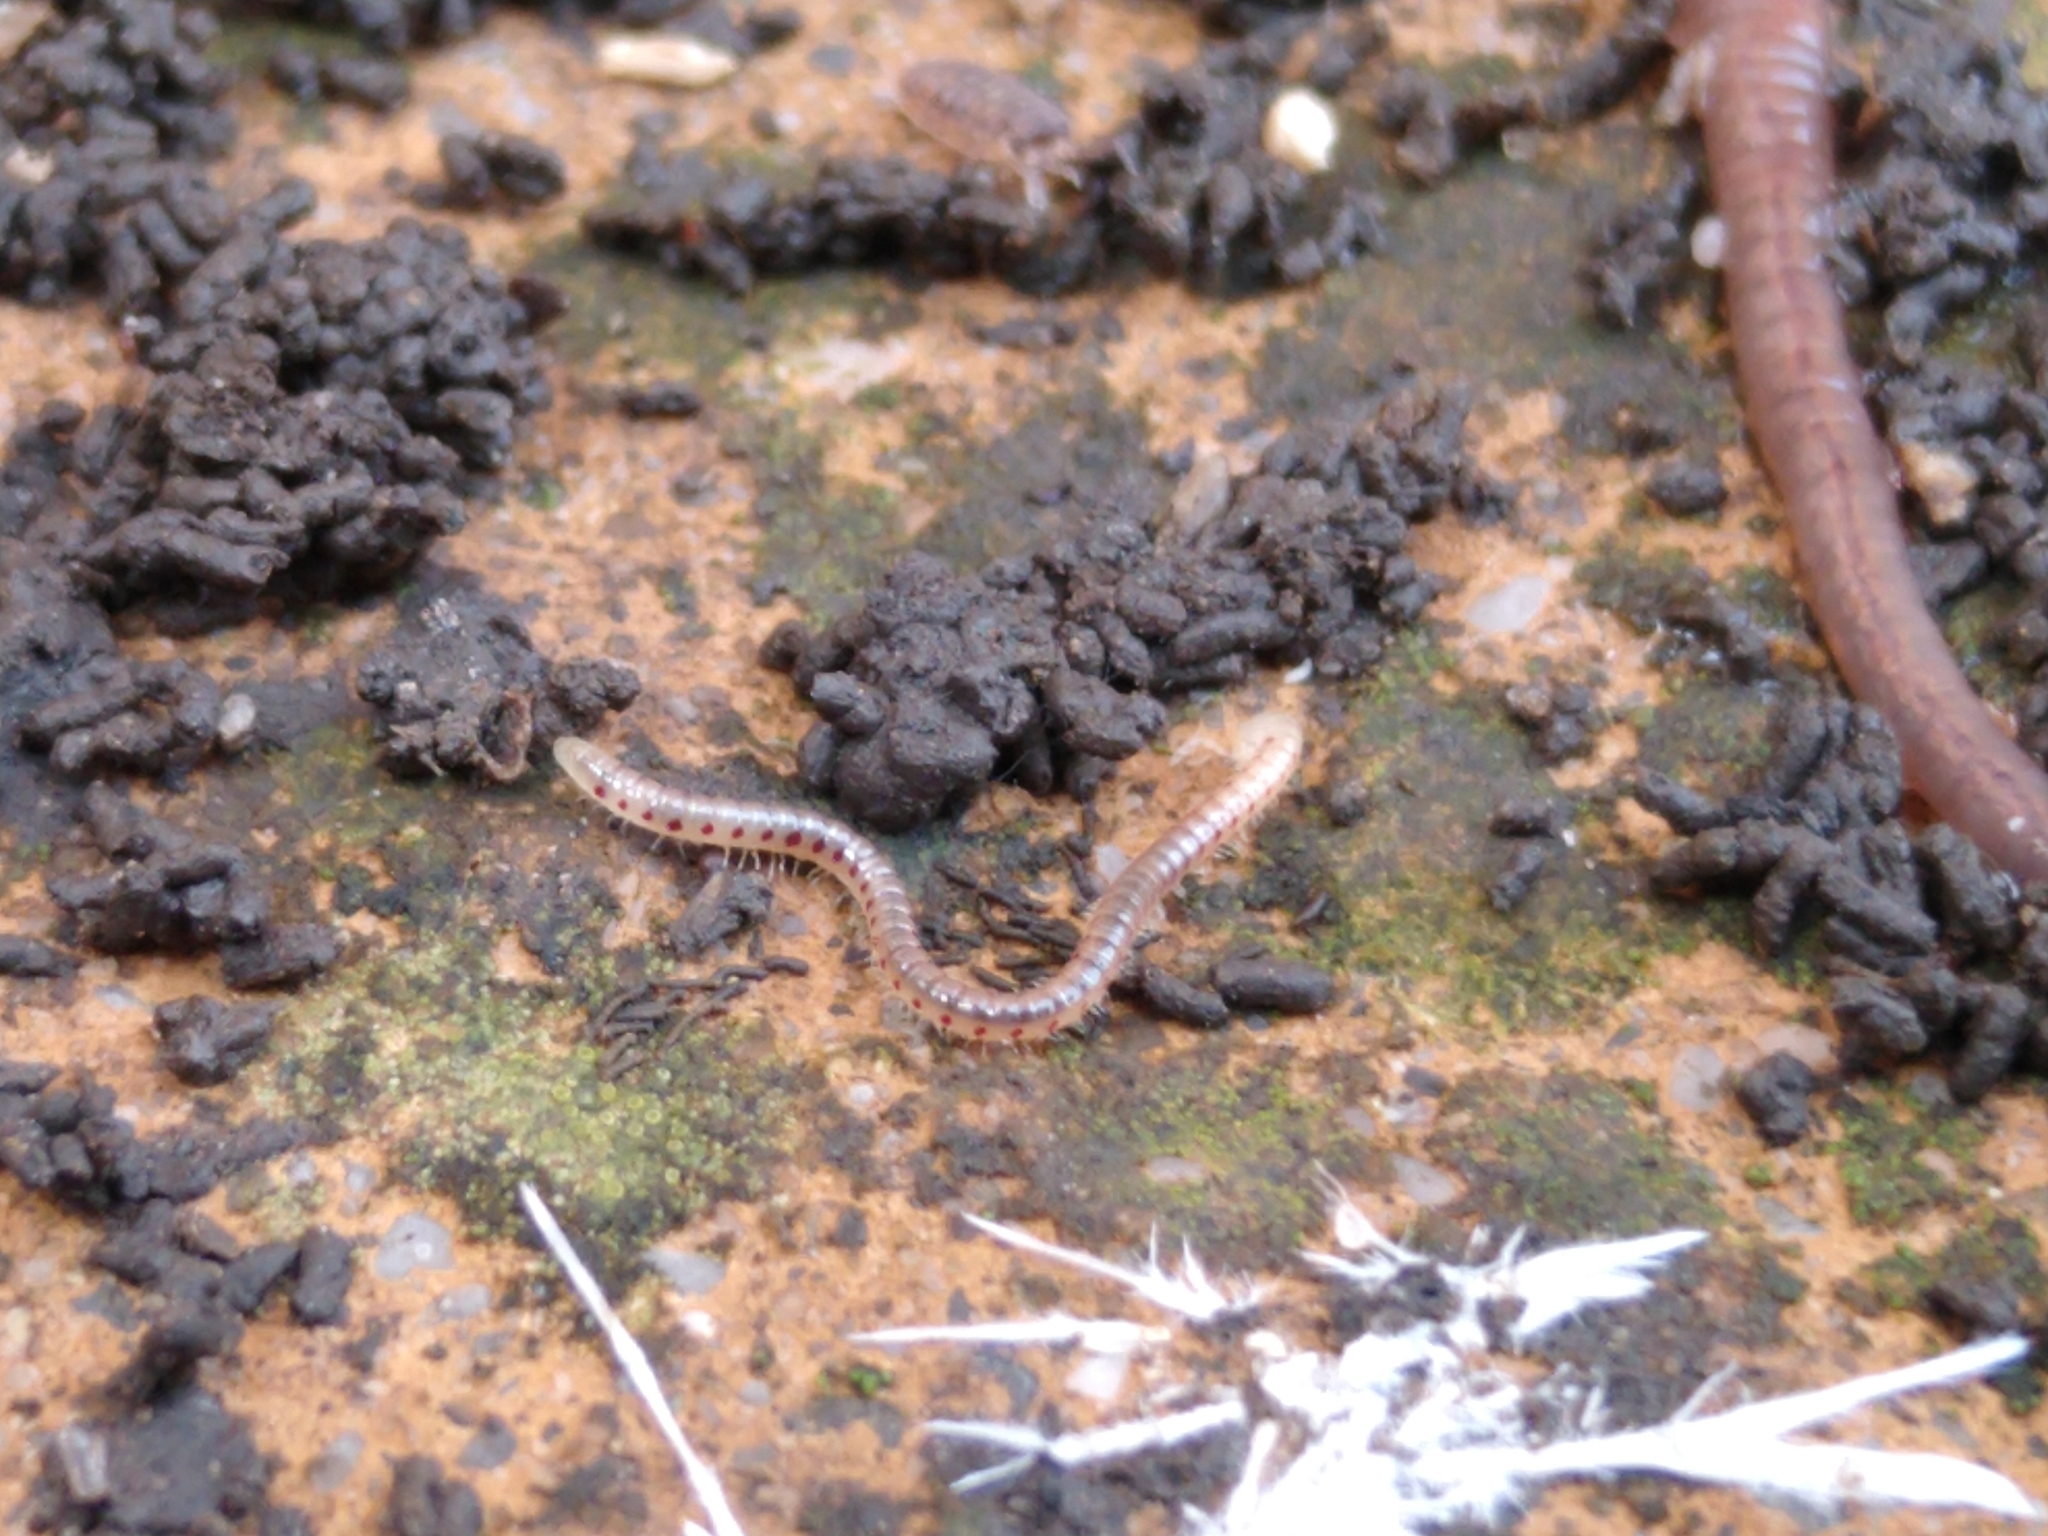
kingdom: Animalia
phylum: Arthropoda
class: Diplopoda
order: Julida
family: Blaniulidae
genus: Blaniulus
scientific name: Blaniulus guttulatus
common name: Spotted snake millipede
